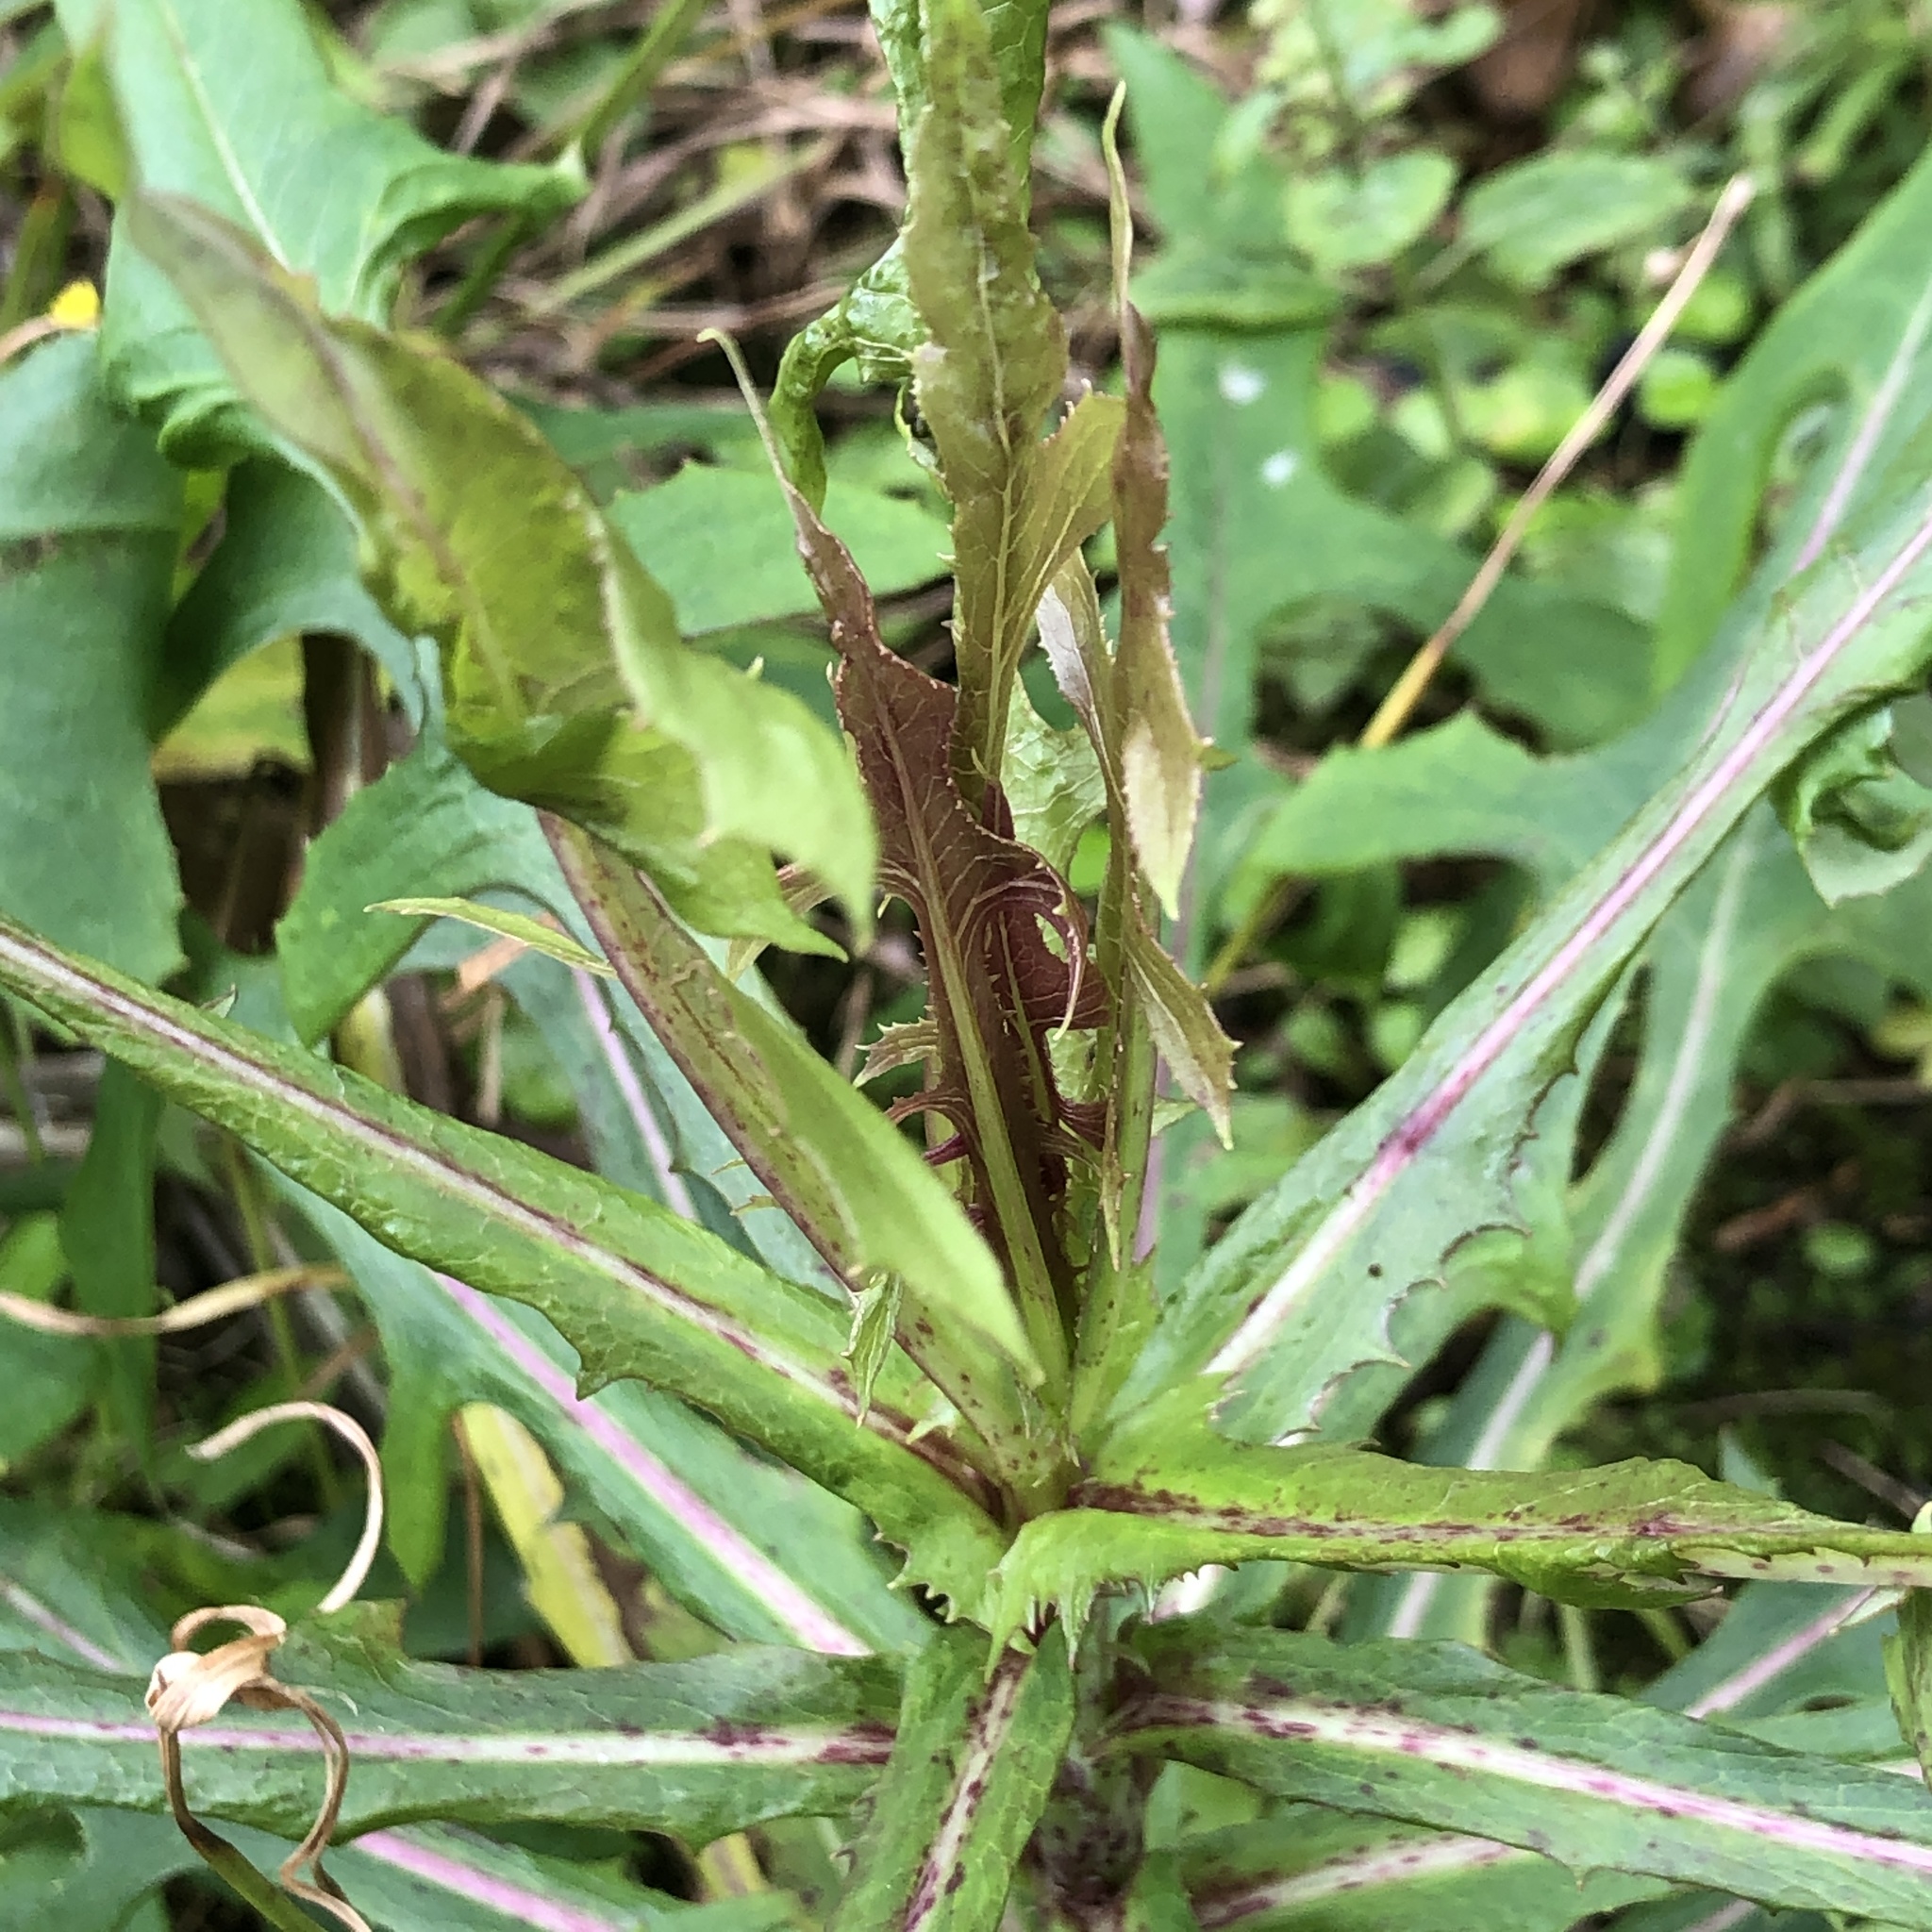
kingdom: Plantae
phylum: Tracheophyta
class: Magnoliopsida
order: Asterales
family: Asteraceae
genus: Lactuca
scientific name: Lactuca indica
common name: Wild lettuce
